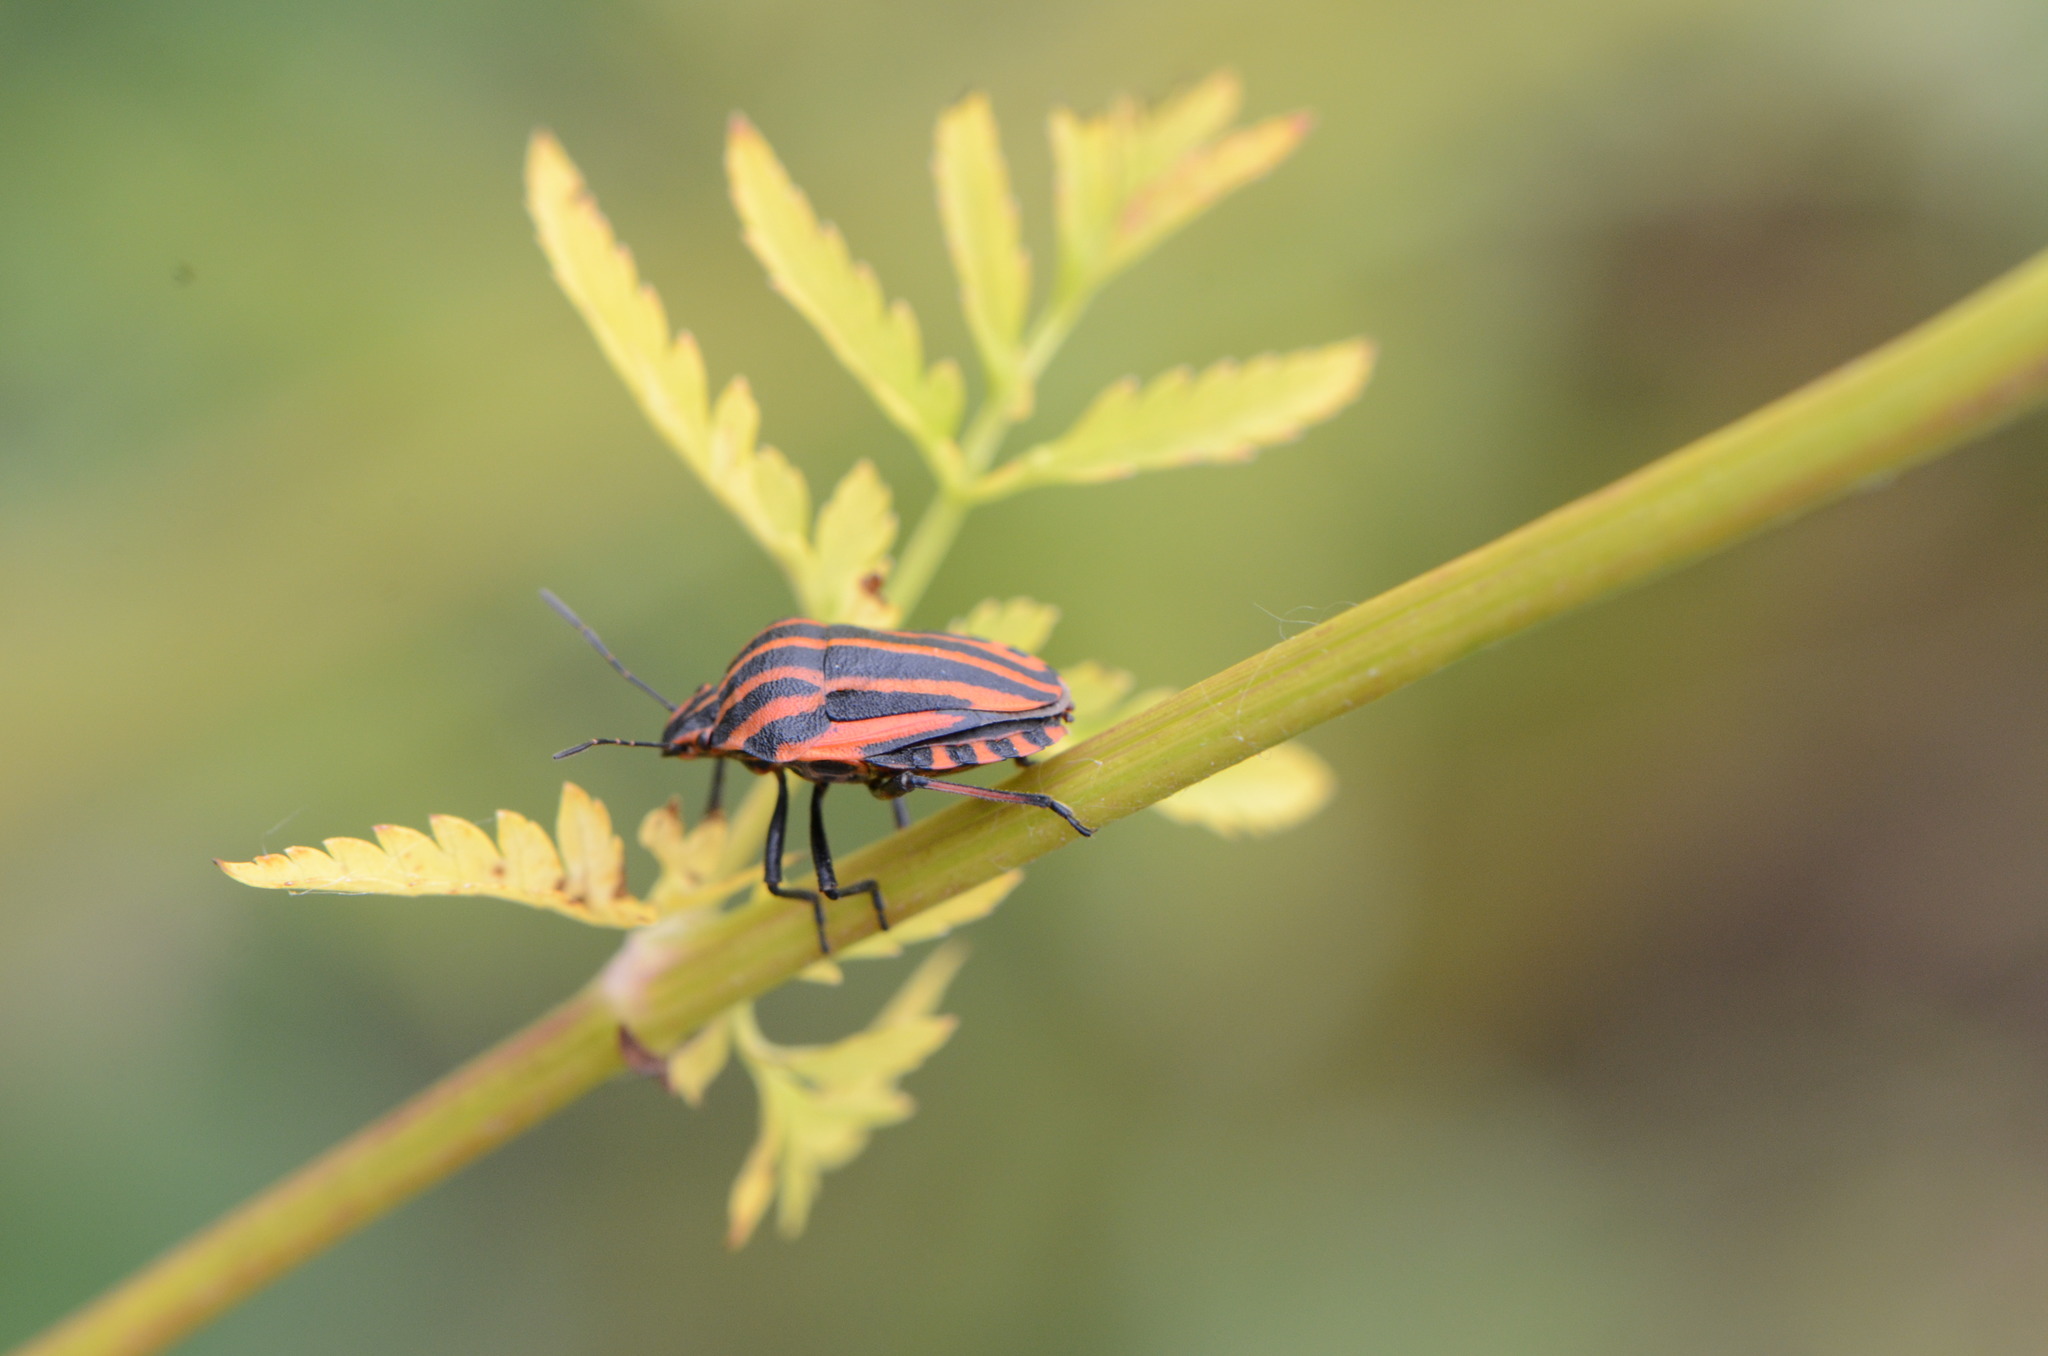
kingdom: Animalia
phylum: Arthropoda
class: Insecta
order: Hemiptera
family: Pentatomidae
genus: Graphosoma
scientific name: Graphosoma italicum
